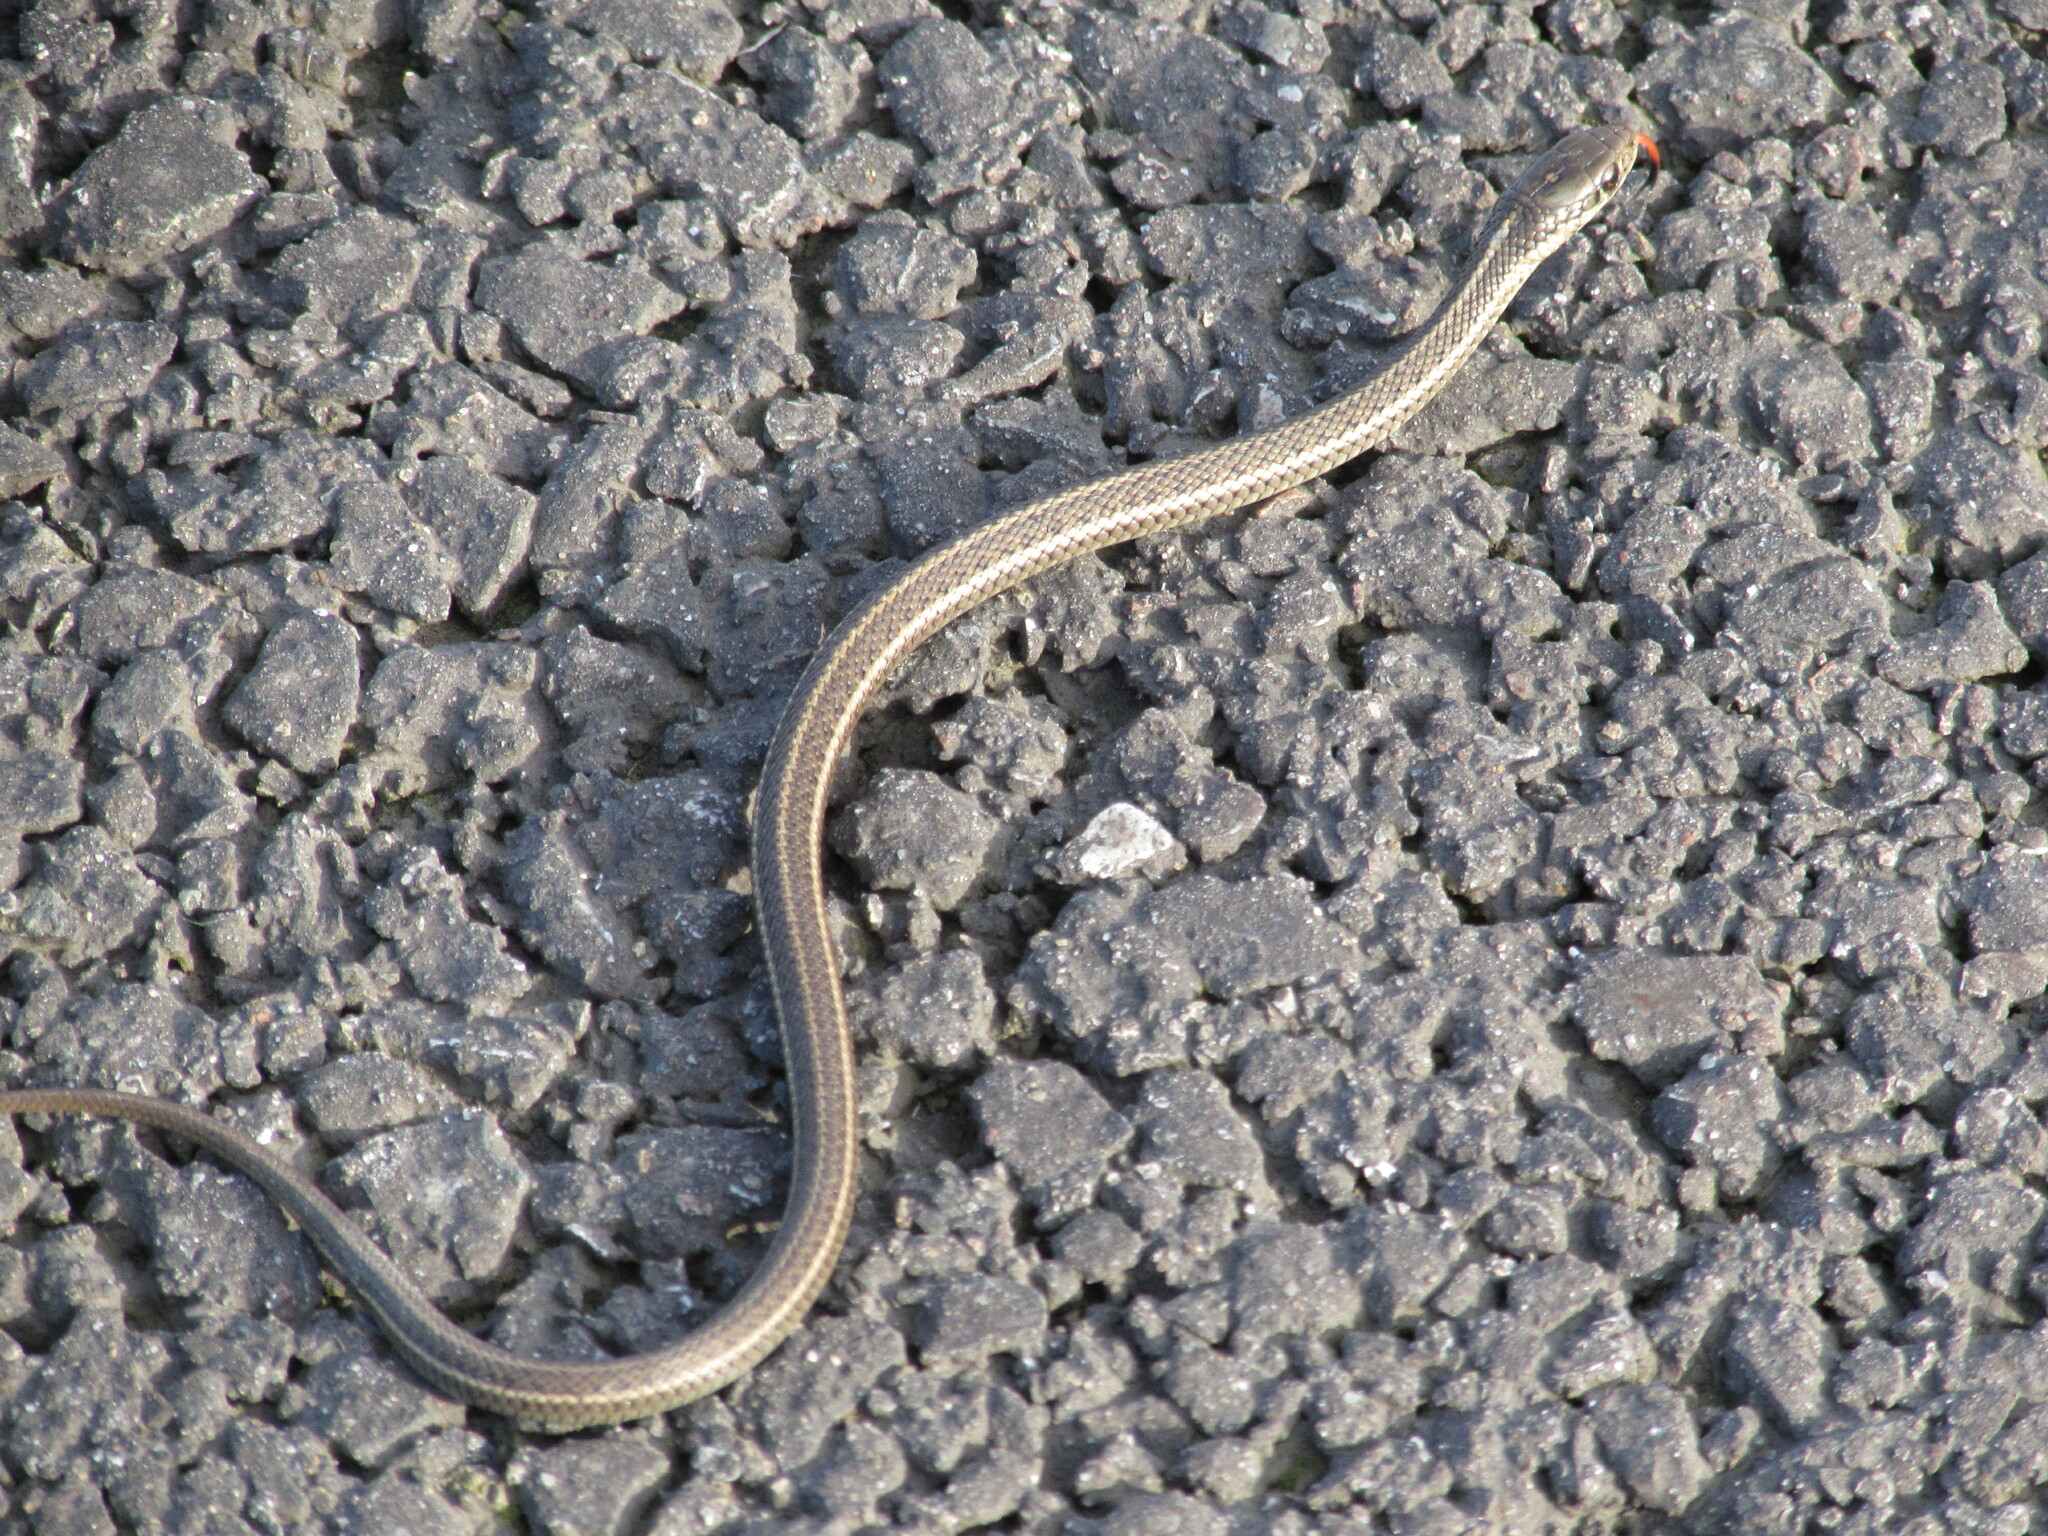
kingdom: Animalia
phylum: Chordata
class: Squamata
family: Colubridae
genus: Thamnophis
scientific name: Thamnophis ordinoides
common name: Northwestern garter snake
